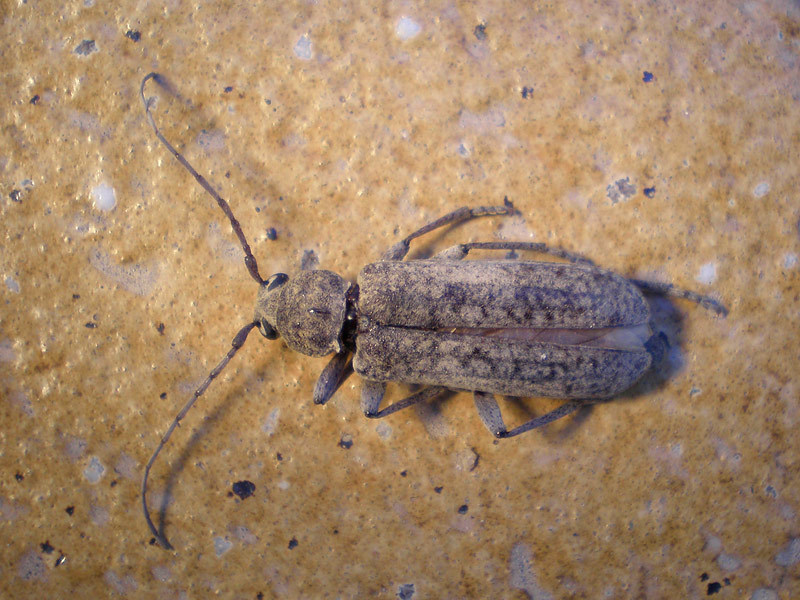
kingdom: Animalia
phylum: Arthropoda
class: Insecta
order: Coleoptera
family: Cerambycidae
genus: Trichoferus
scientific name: Trichoferus holosericeus
